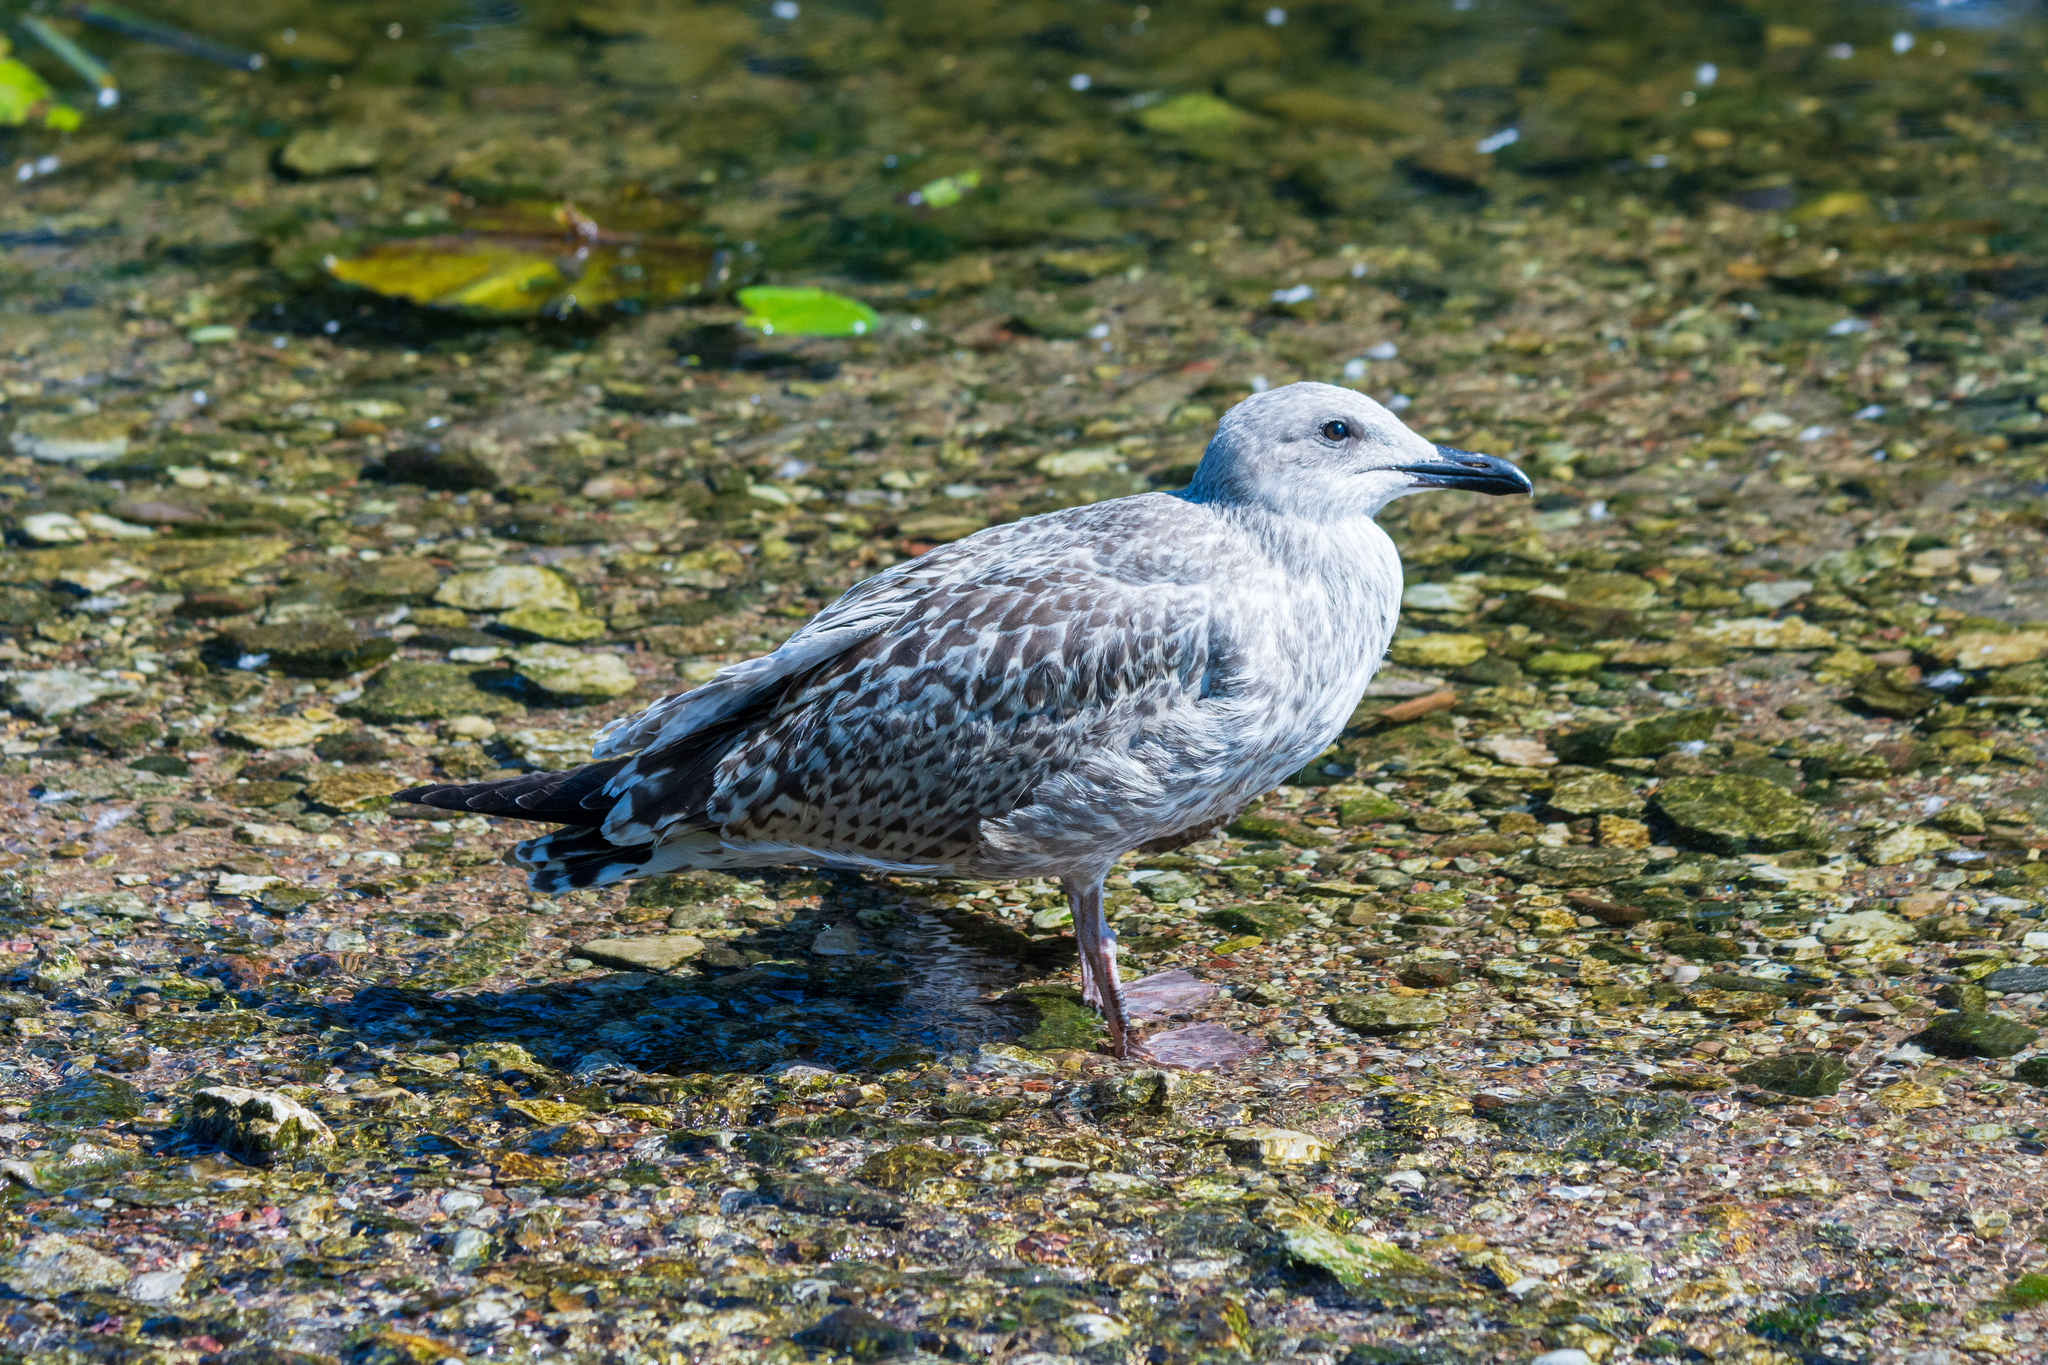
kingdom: Animalia
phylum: Chordata
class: Aves
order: Charadriiformes
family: Laridae
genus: Larus
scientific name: Larus argentatus
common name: Herring gull
